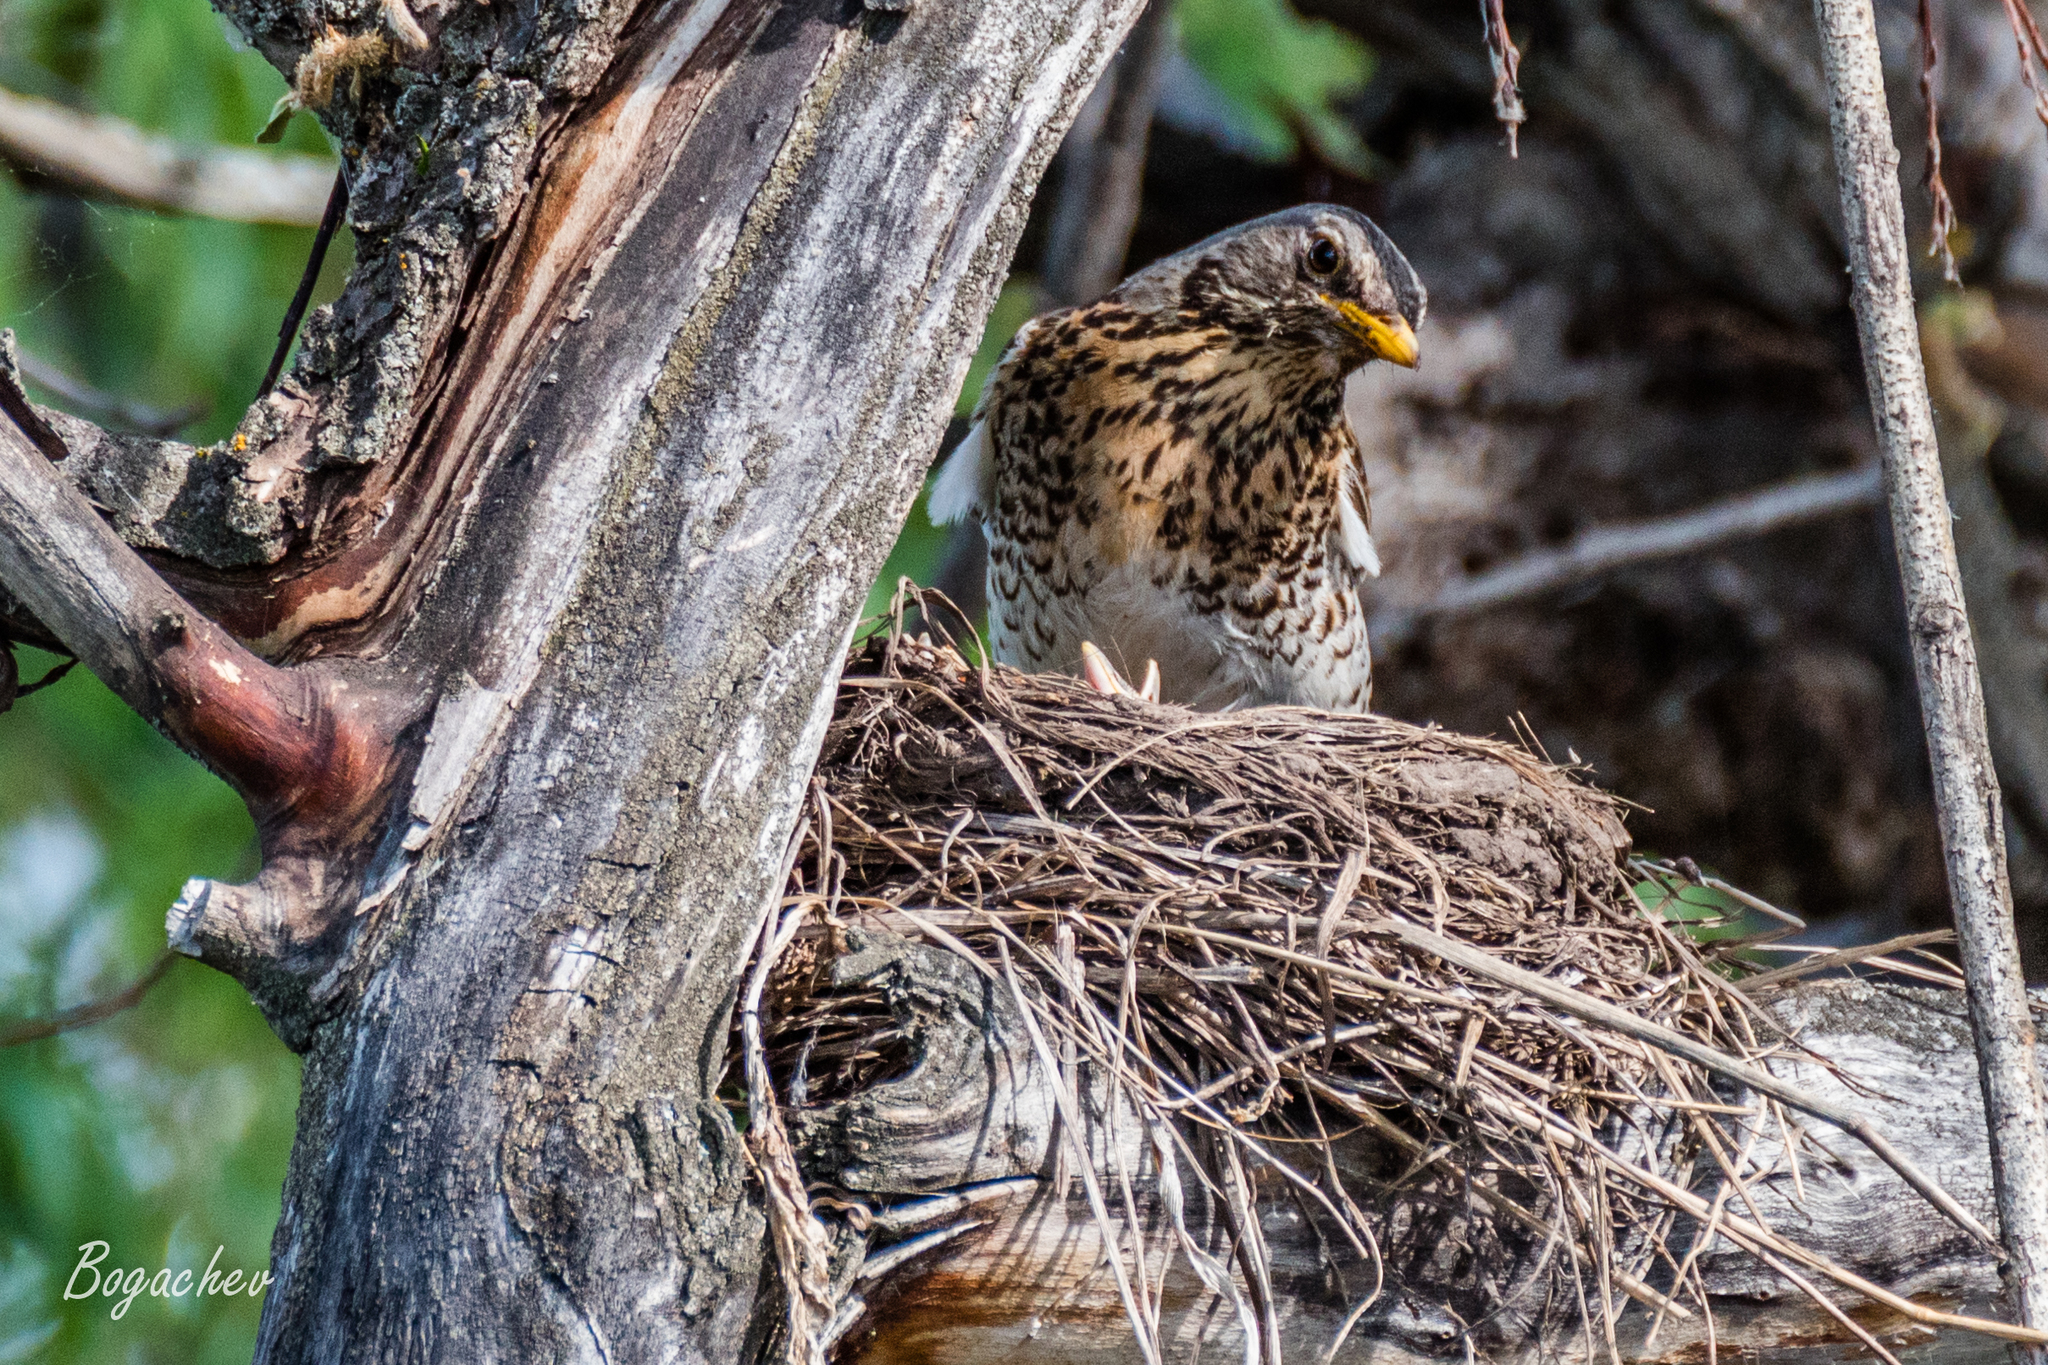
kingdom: Animalia
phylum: Chordata
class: Aves
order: Passeriformes
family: Turdidae
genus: Turdus
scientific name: Turdus pilaris
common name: Fieldfare
